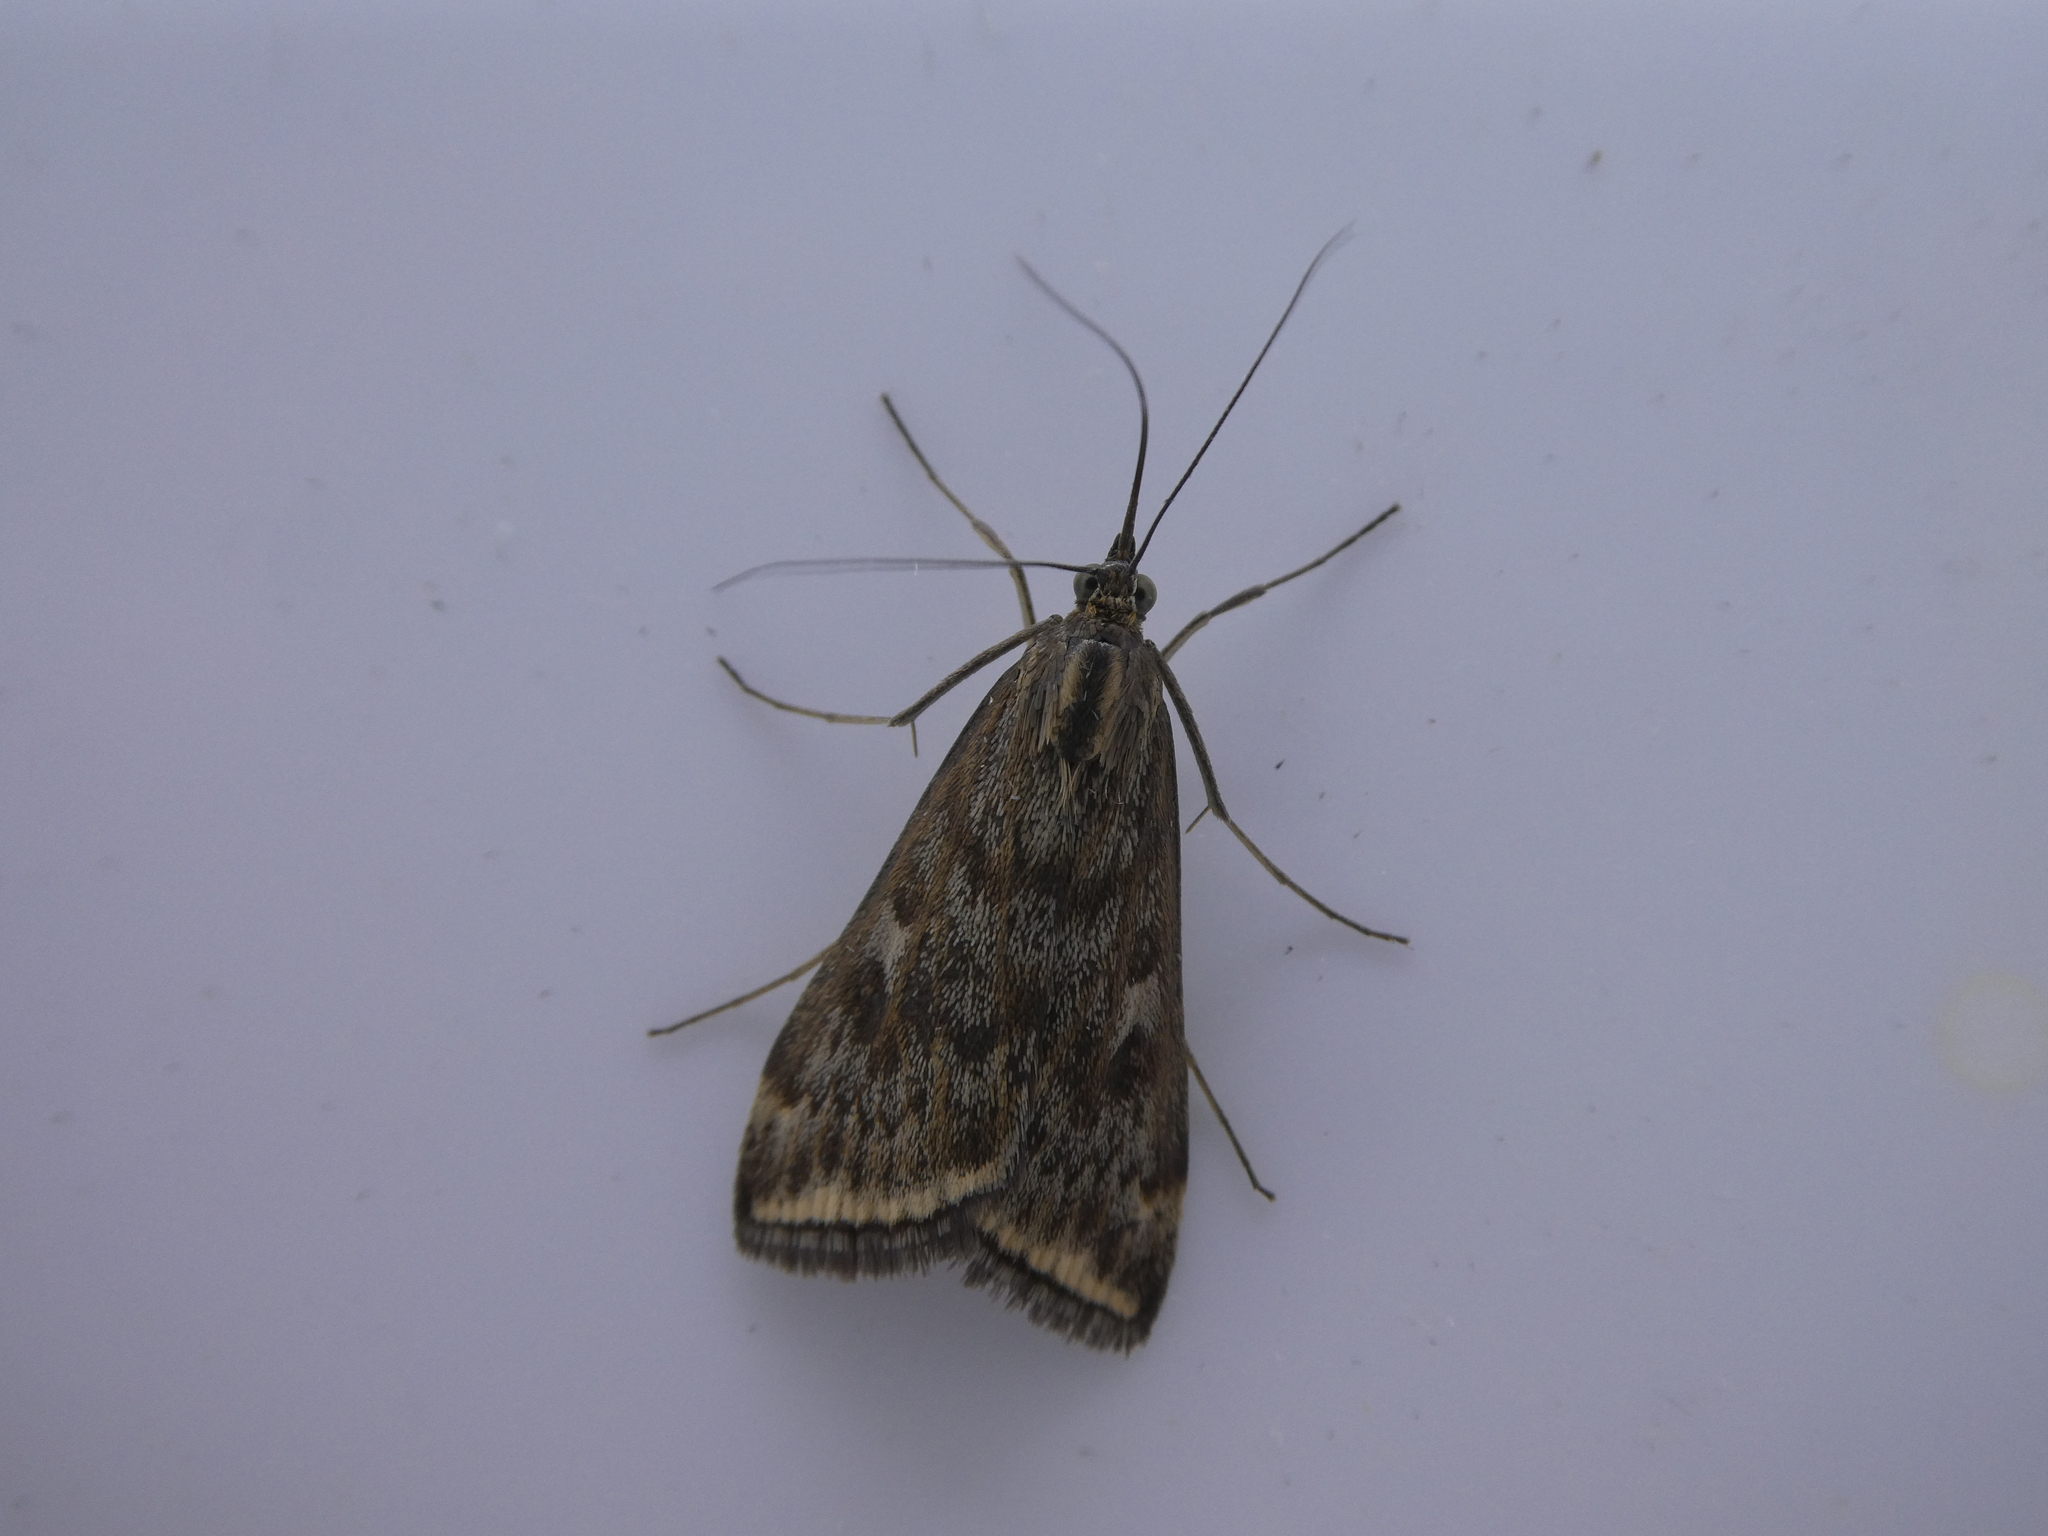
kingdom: Animalia
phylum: Arthropoda
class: Insecta
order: Lepidoptera
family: Crambidae
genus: Loxostege
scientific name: Loxostege
